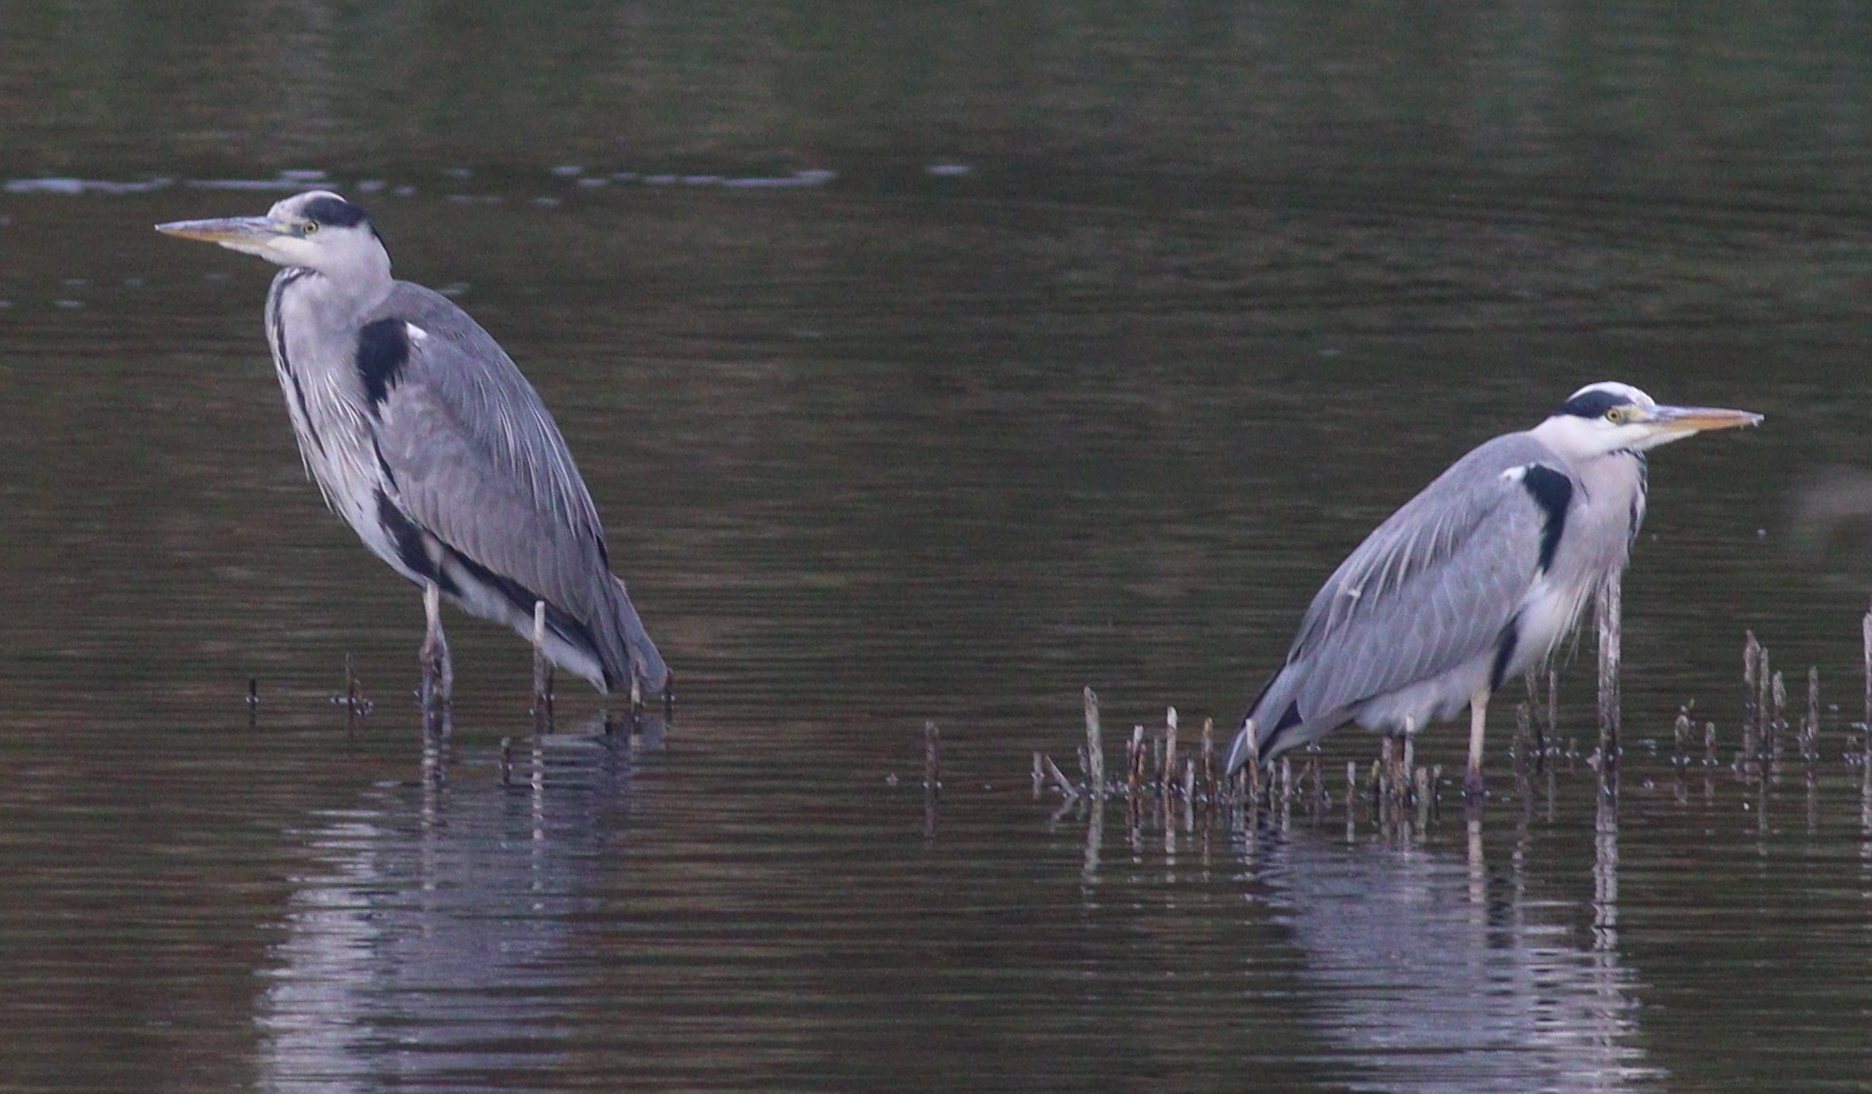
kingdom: Animalia
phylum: Chordata
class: Aves
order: Pelecaniformes
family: Ardeidae
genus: Ardea
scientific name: Ardea cinerea
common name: Grey heron
